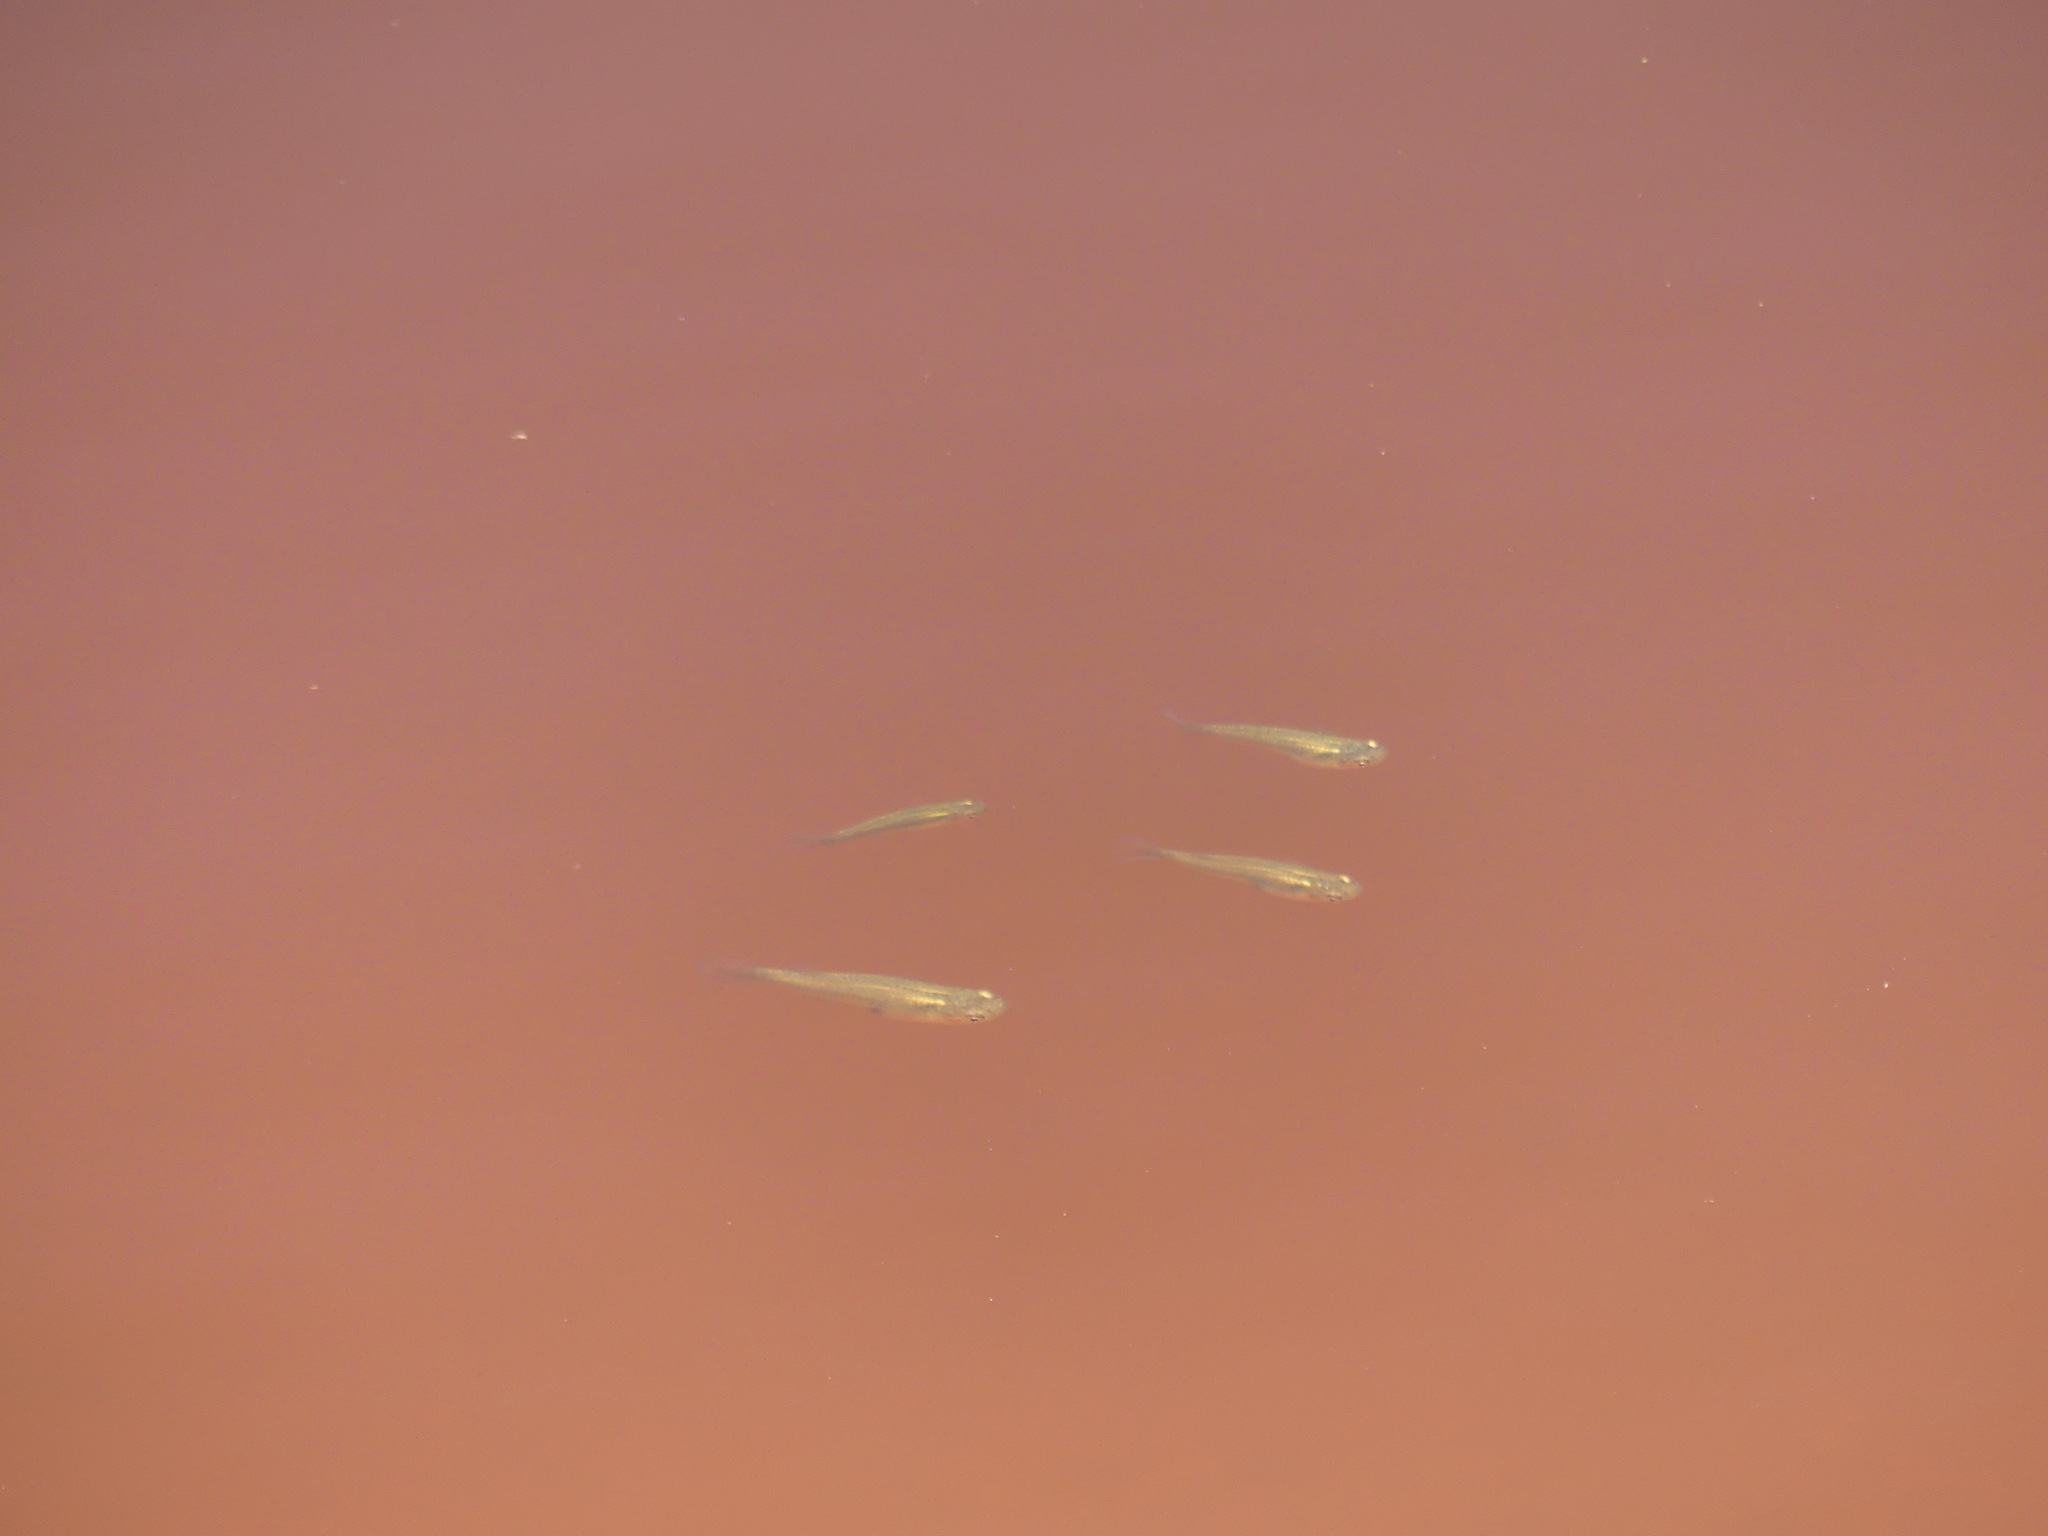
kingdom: Animalia
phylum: Chordata
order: Cyprinodontiformes
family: Poeciliidae
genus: Gambusia
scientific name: Gambusia holbrooki
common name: Eastern mosquitofish
